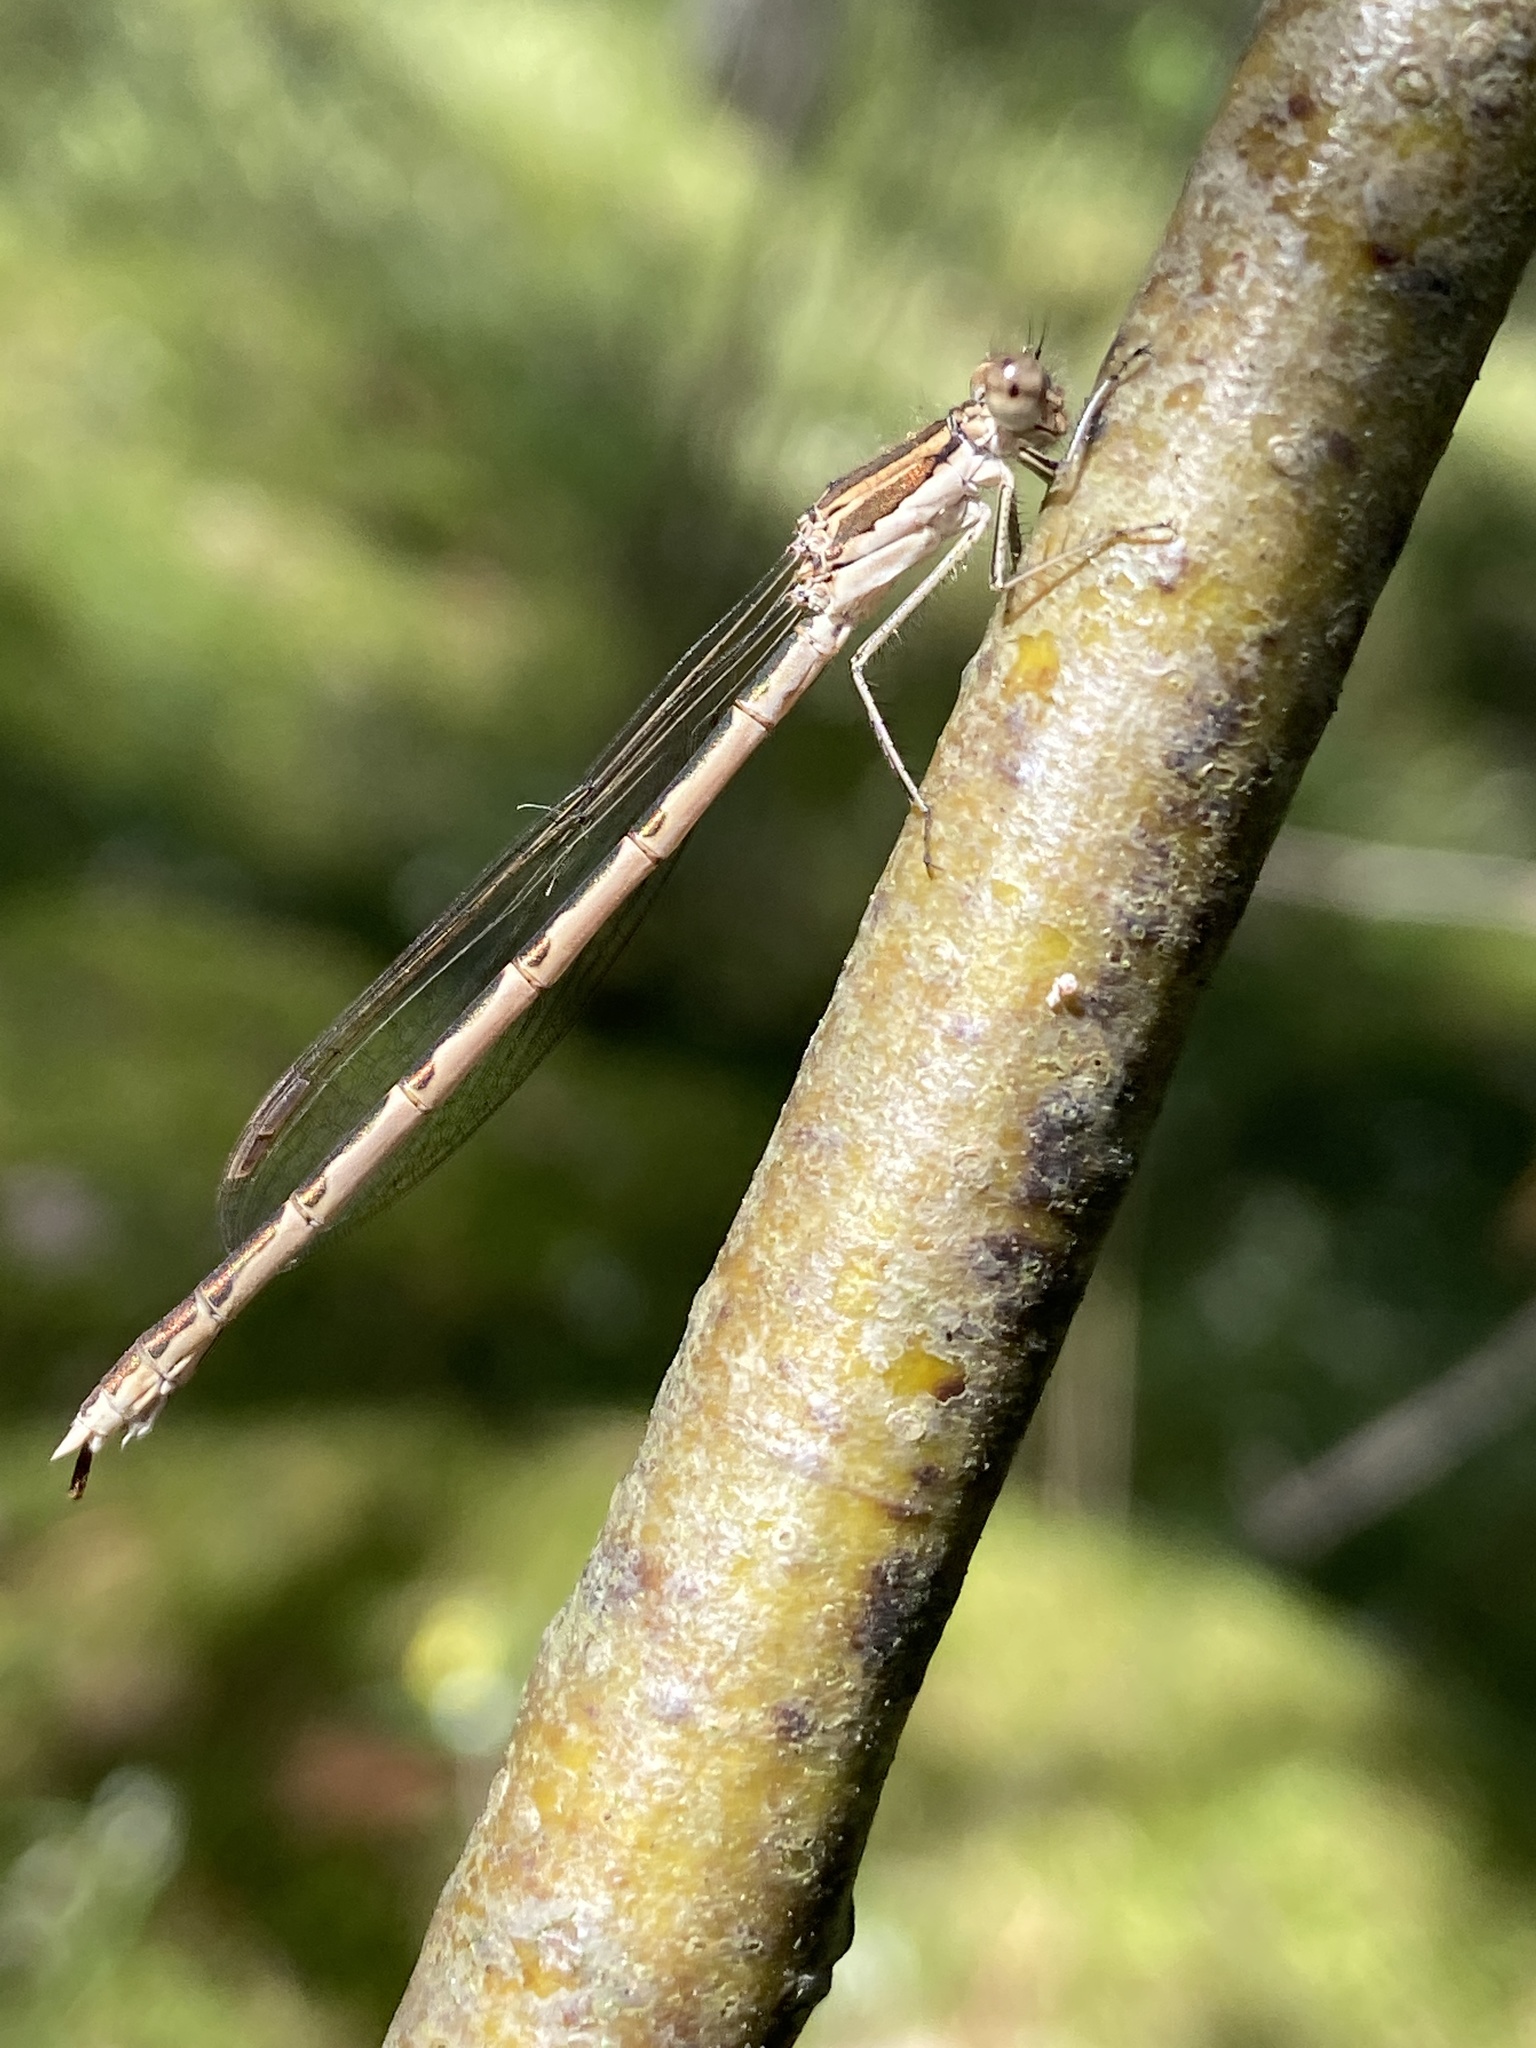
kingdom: Animalia
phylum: Arthropoda
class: Insecta
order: Odonata
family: Lestidae
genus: Sympecma
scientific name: Sympecma fusca
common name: Common winter damsel
